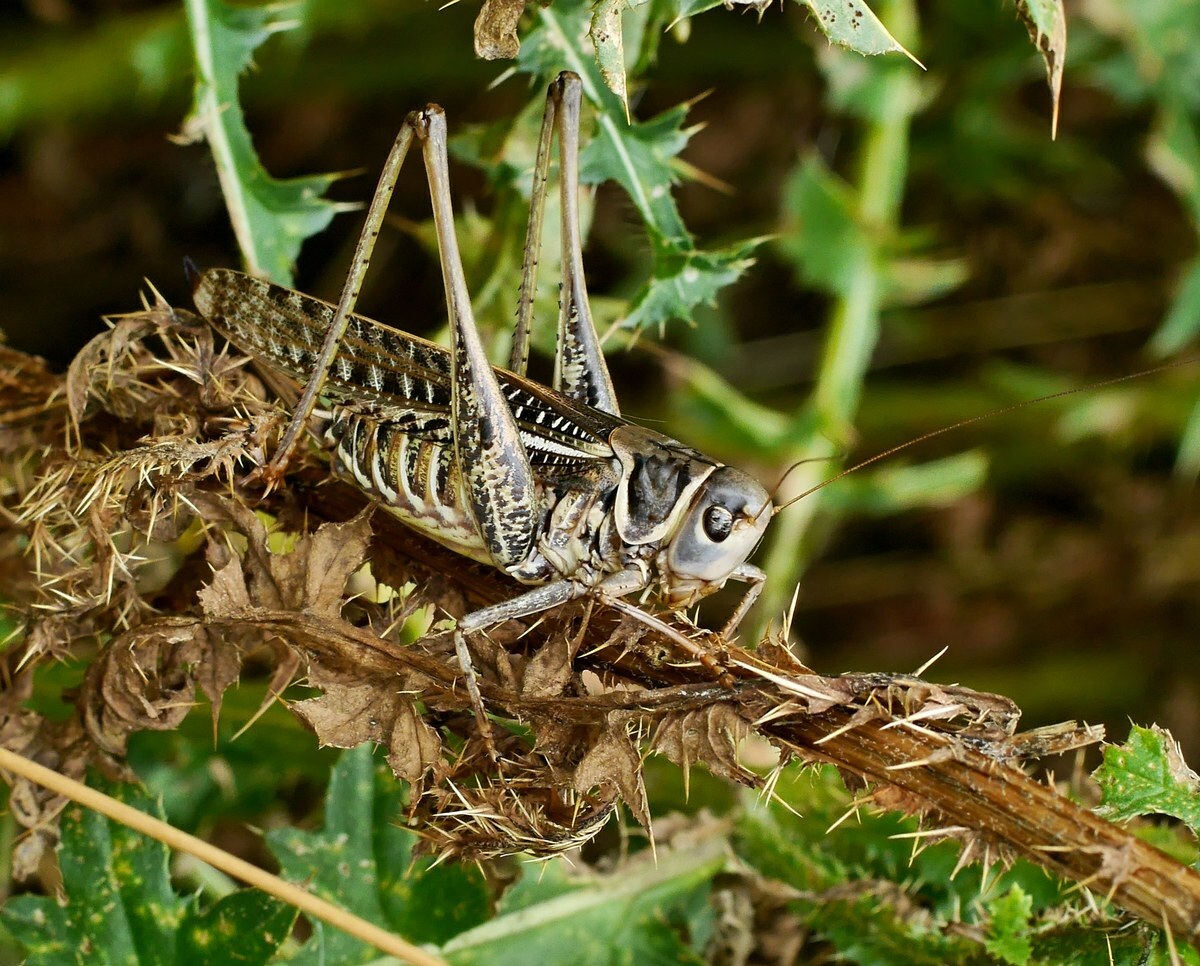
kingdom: Animalia
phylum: Arthropoda
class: Insecta
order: Orthoptera
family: Tettigoniidae
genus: Decticus
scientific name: Decticus albifrons
